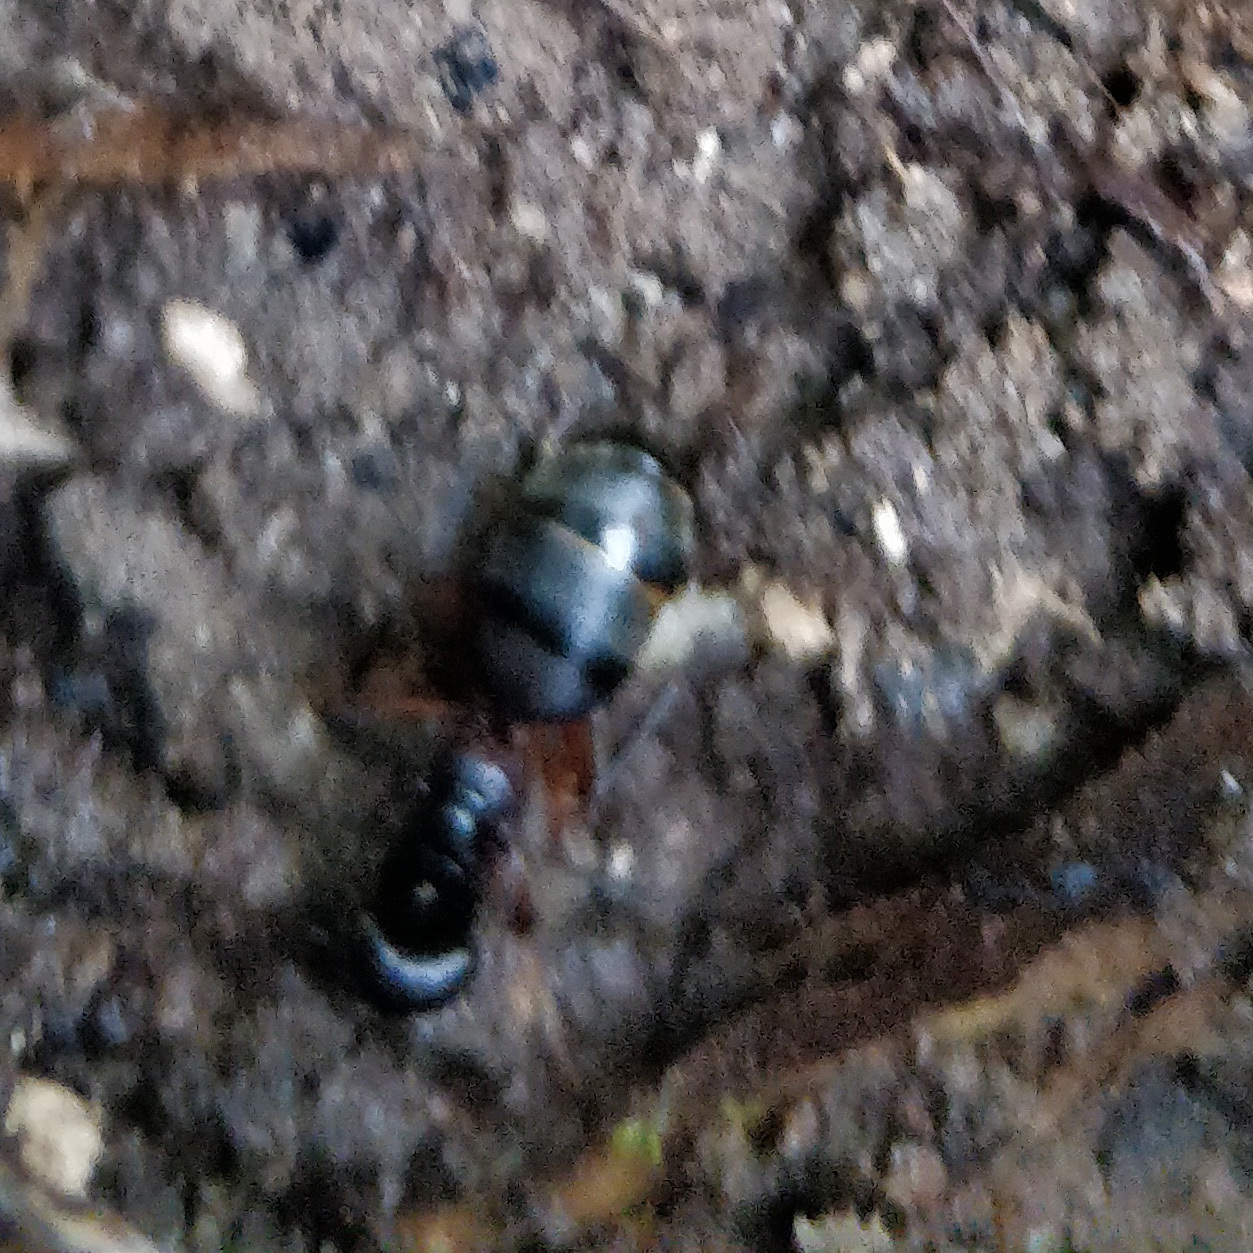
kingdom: Animalia
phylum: Arthropoda
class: Insecta
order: Hymenoptera
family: Formicidae
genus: Camponotus
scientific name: Camponotus chromaiodes
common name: Red carpenter ant
